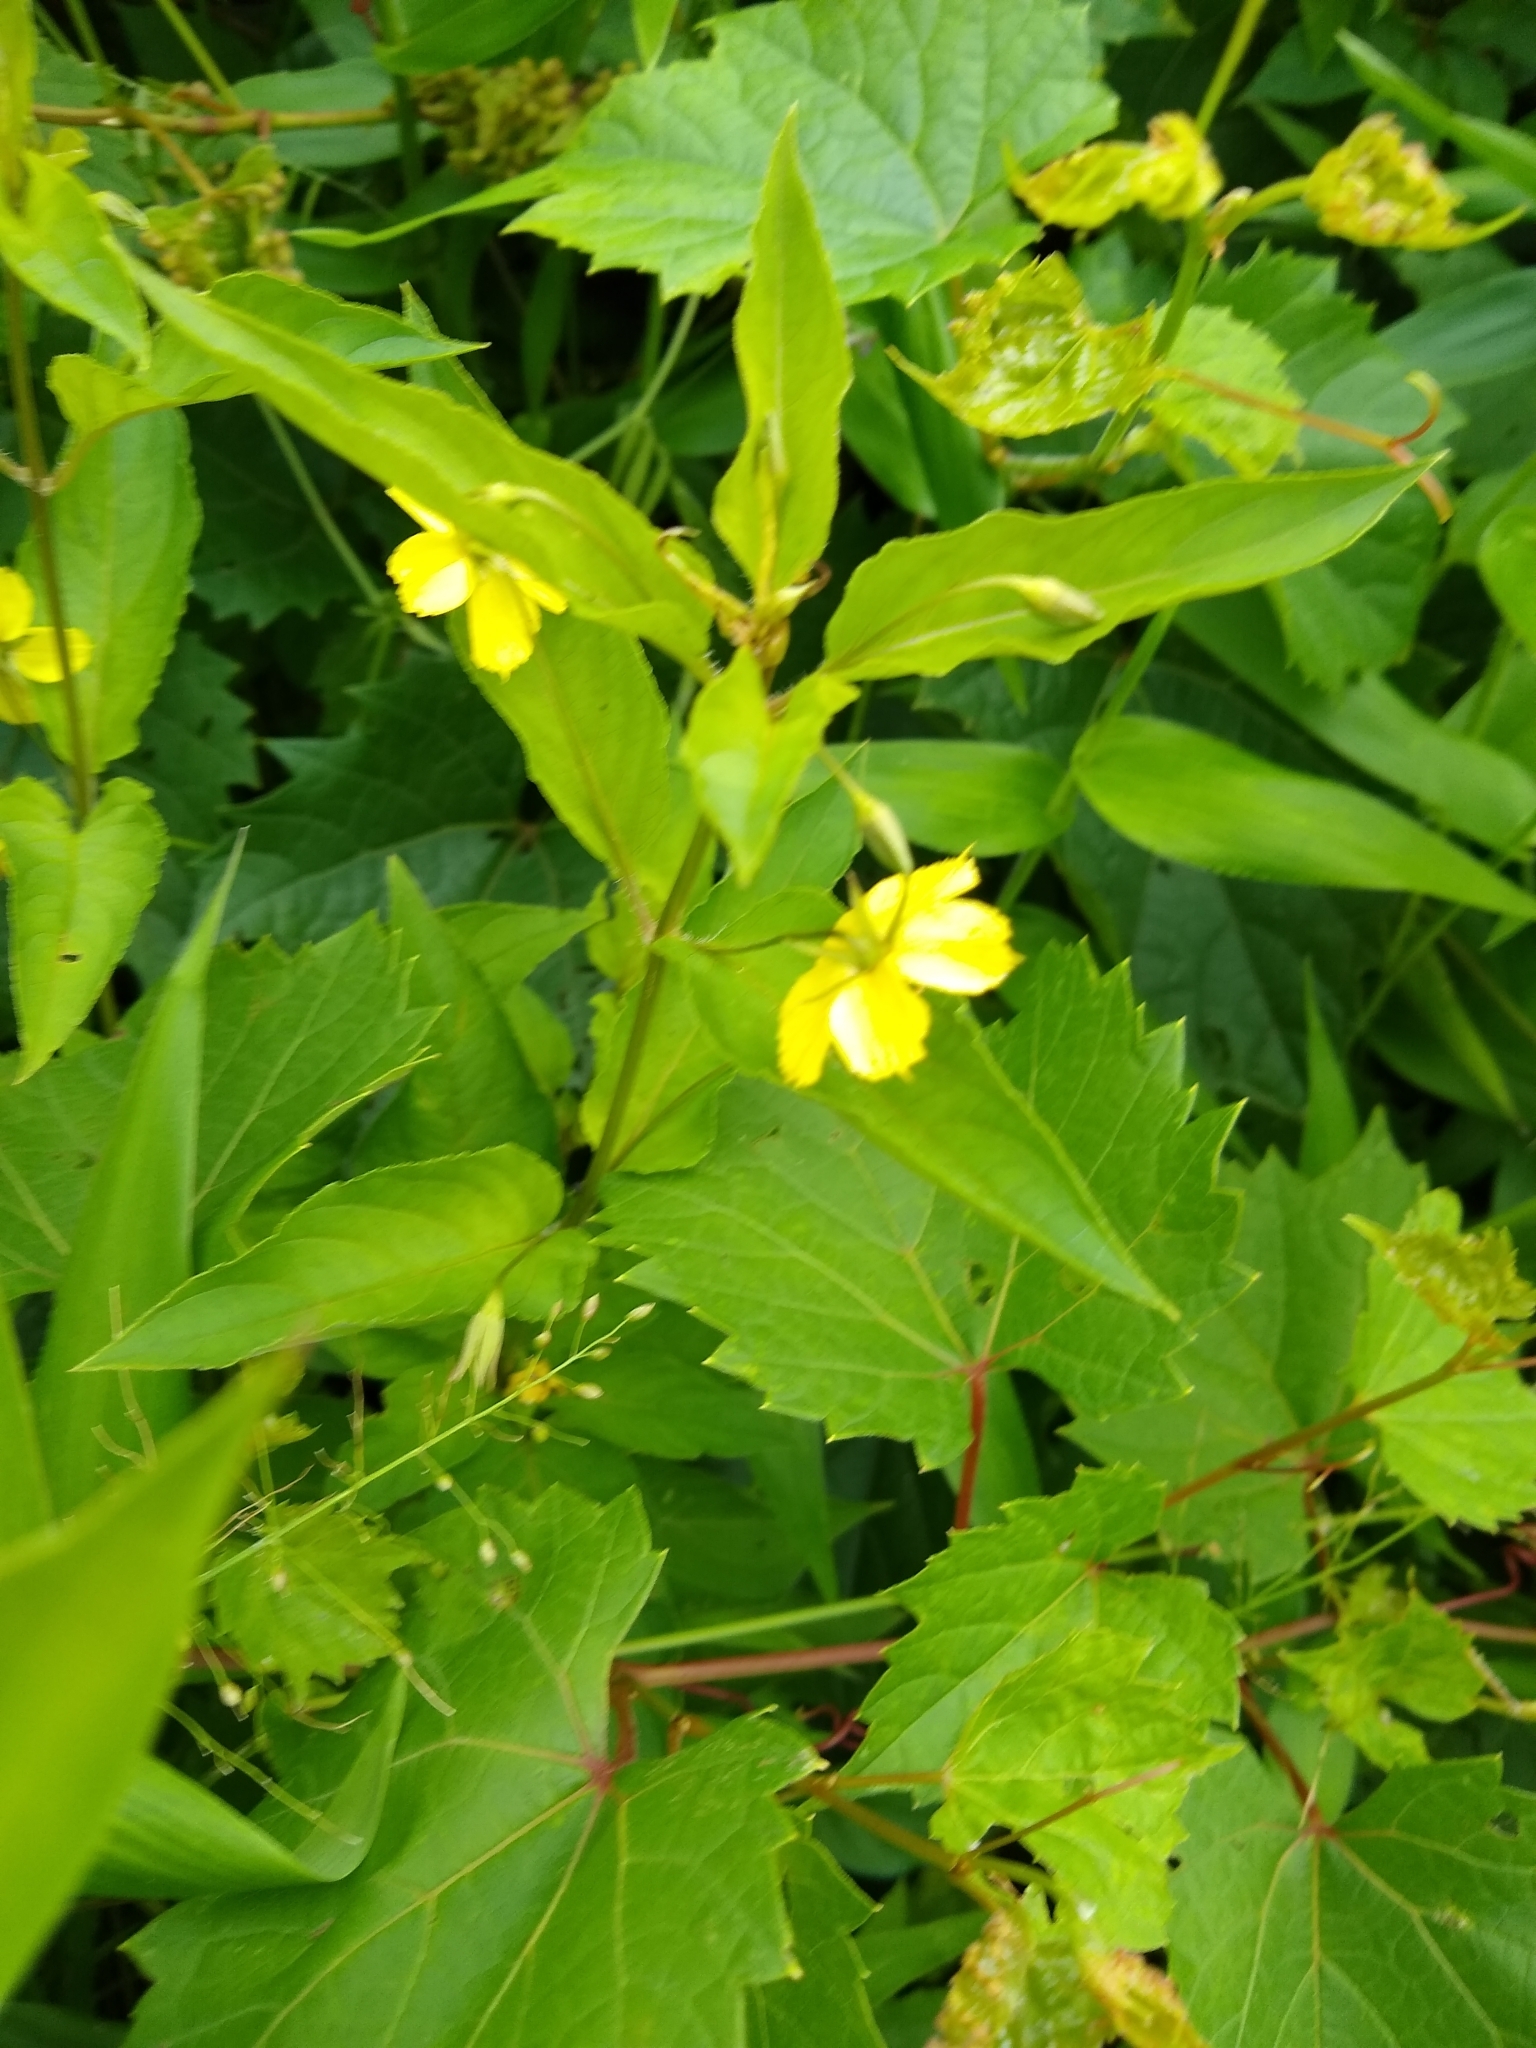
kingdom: Plantae
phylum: Tracheophyta
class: Magnoliopsida
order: Ericales
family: Primulaceae
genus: Lysimachia
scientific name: Lysimachia ciliata
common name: Fringed loosestrife
